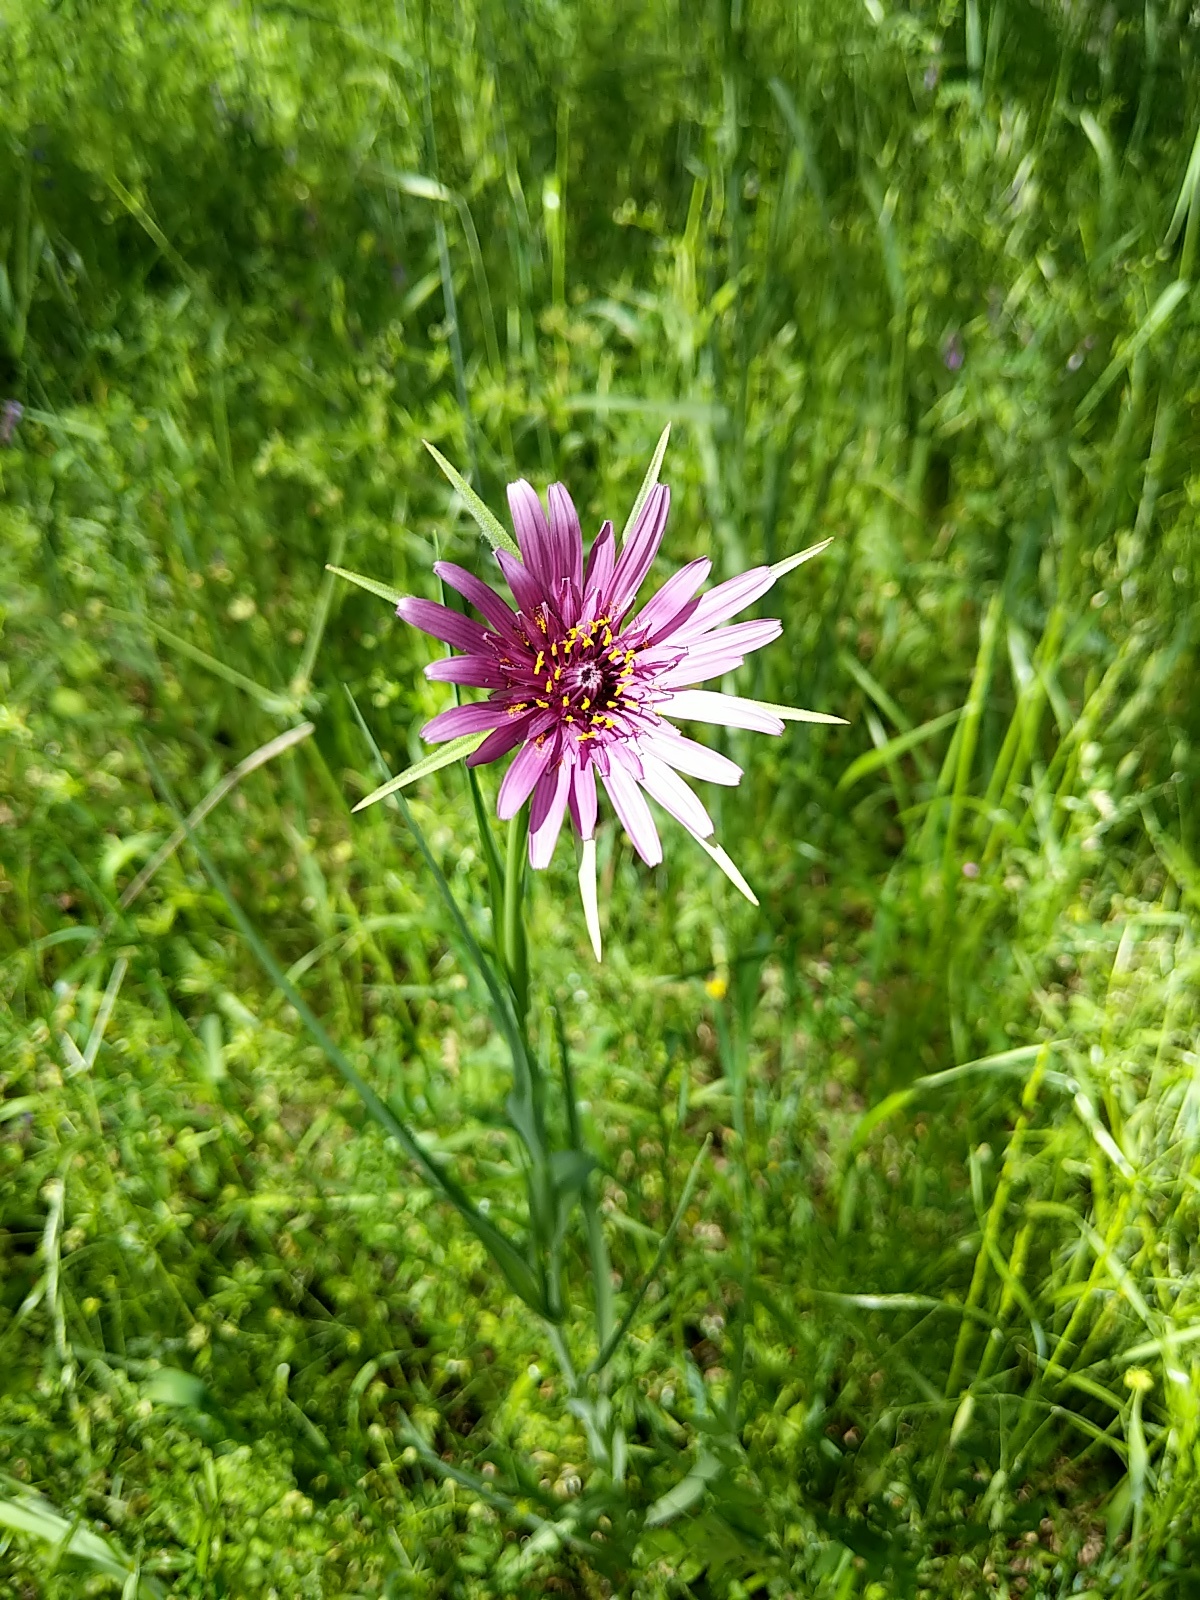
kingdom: Plantae
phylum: Tracheophyta
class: Magnoliopsida
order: Asterales
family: Asteraceae
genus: Tragopogon
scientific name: Tragopogon porrifolius
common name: Salsify
